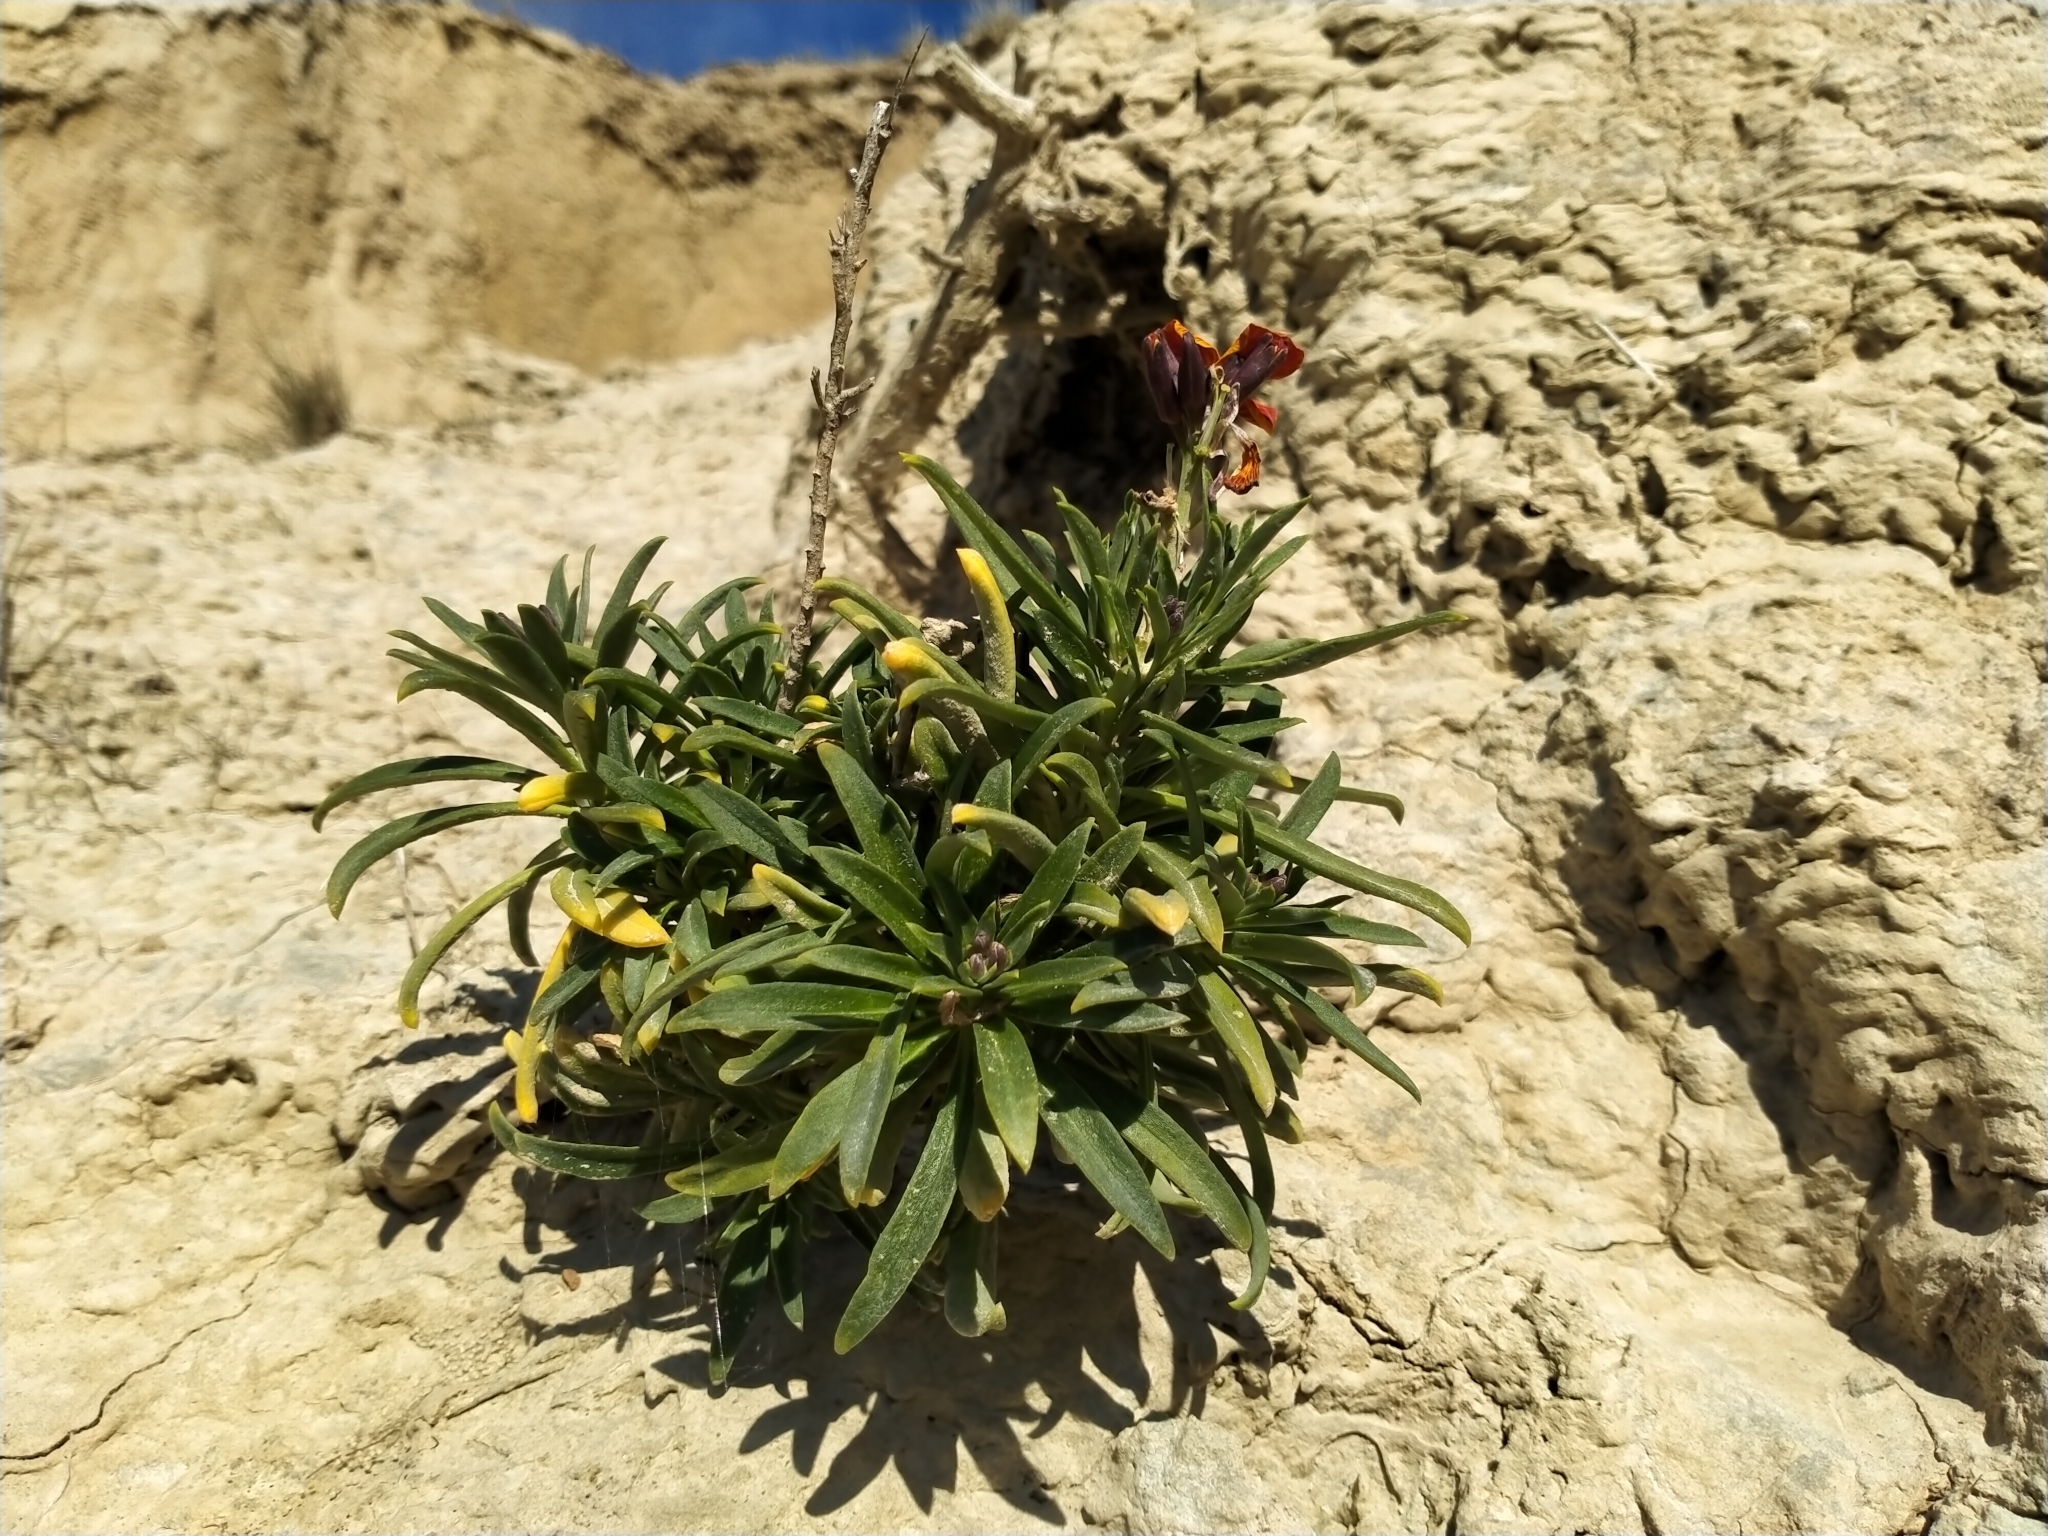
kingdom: Plantae
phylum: Tracheophyta
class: Magnoliopsida
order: Brassicales
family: Brassicaceae
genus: Erysimum
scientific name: Erysimum cheiri
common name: Wallflower
